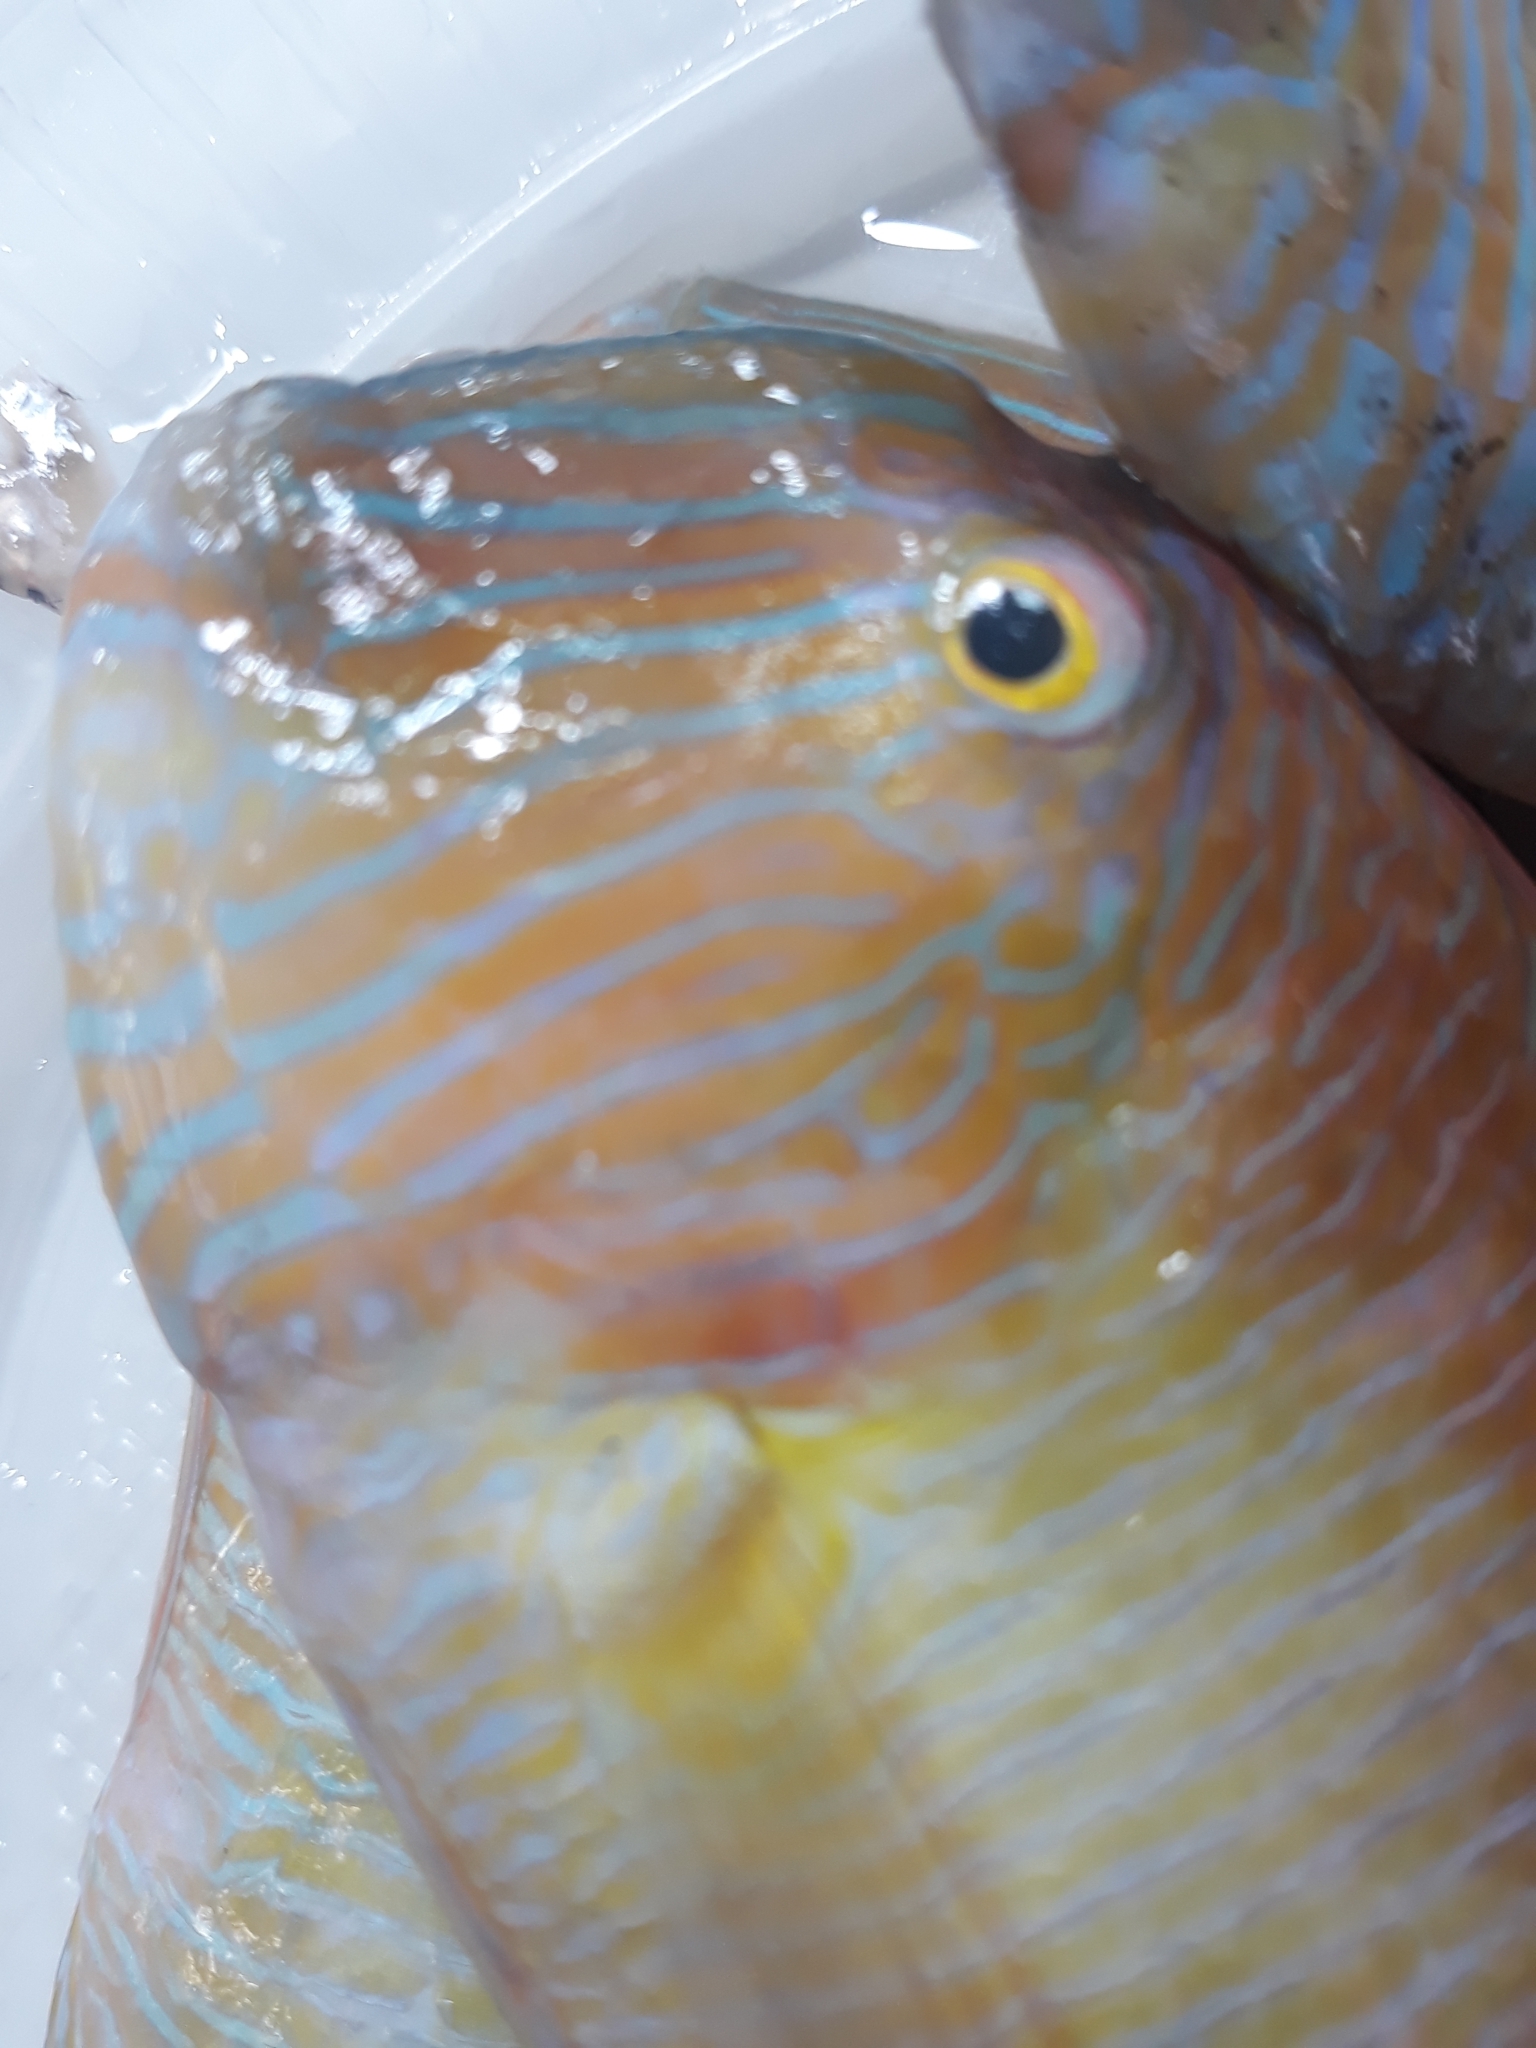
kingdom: Animalia
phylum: Chordata
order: Perciformes
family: Labridae
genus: Xyrichtys
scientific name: Xyrichtys novacula
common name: Pearly razorfish
